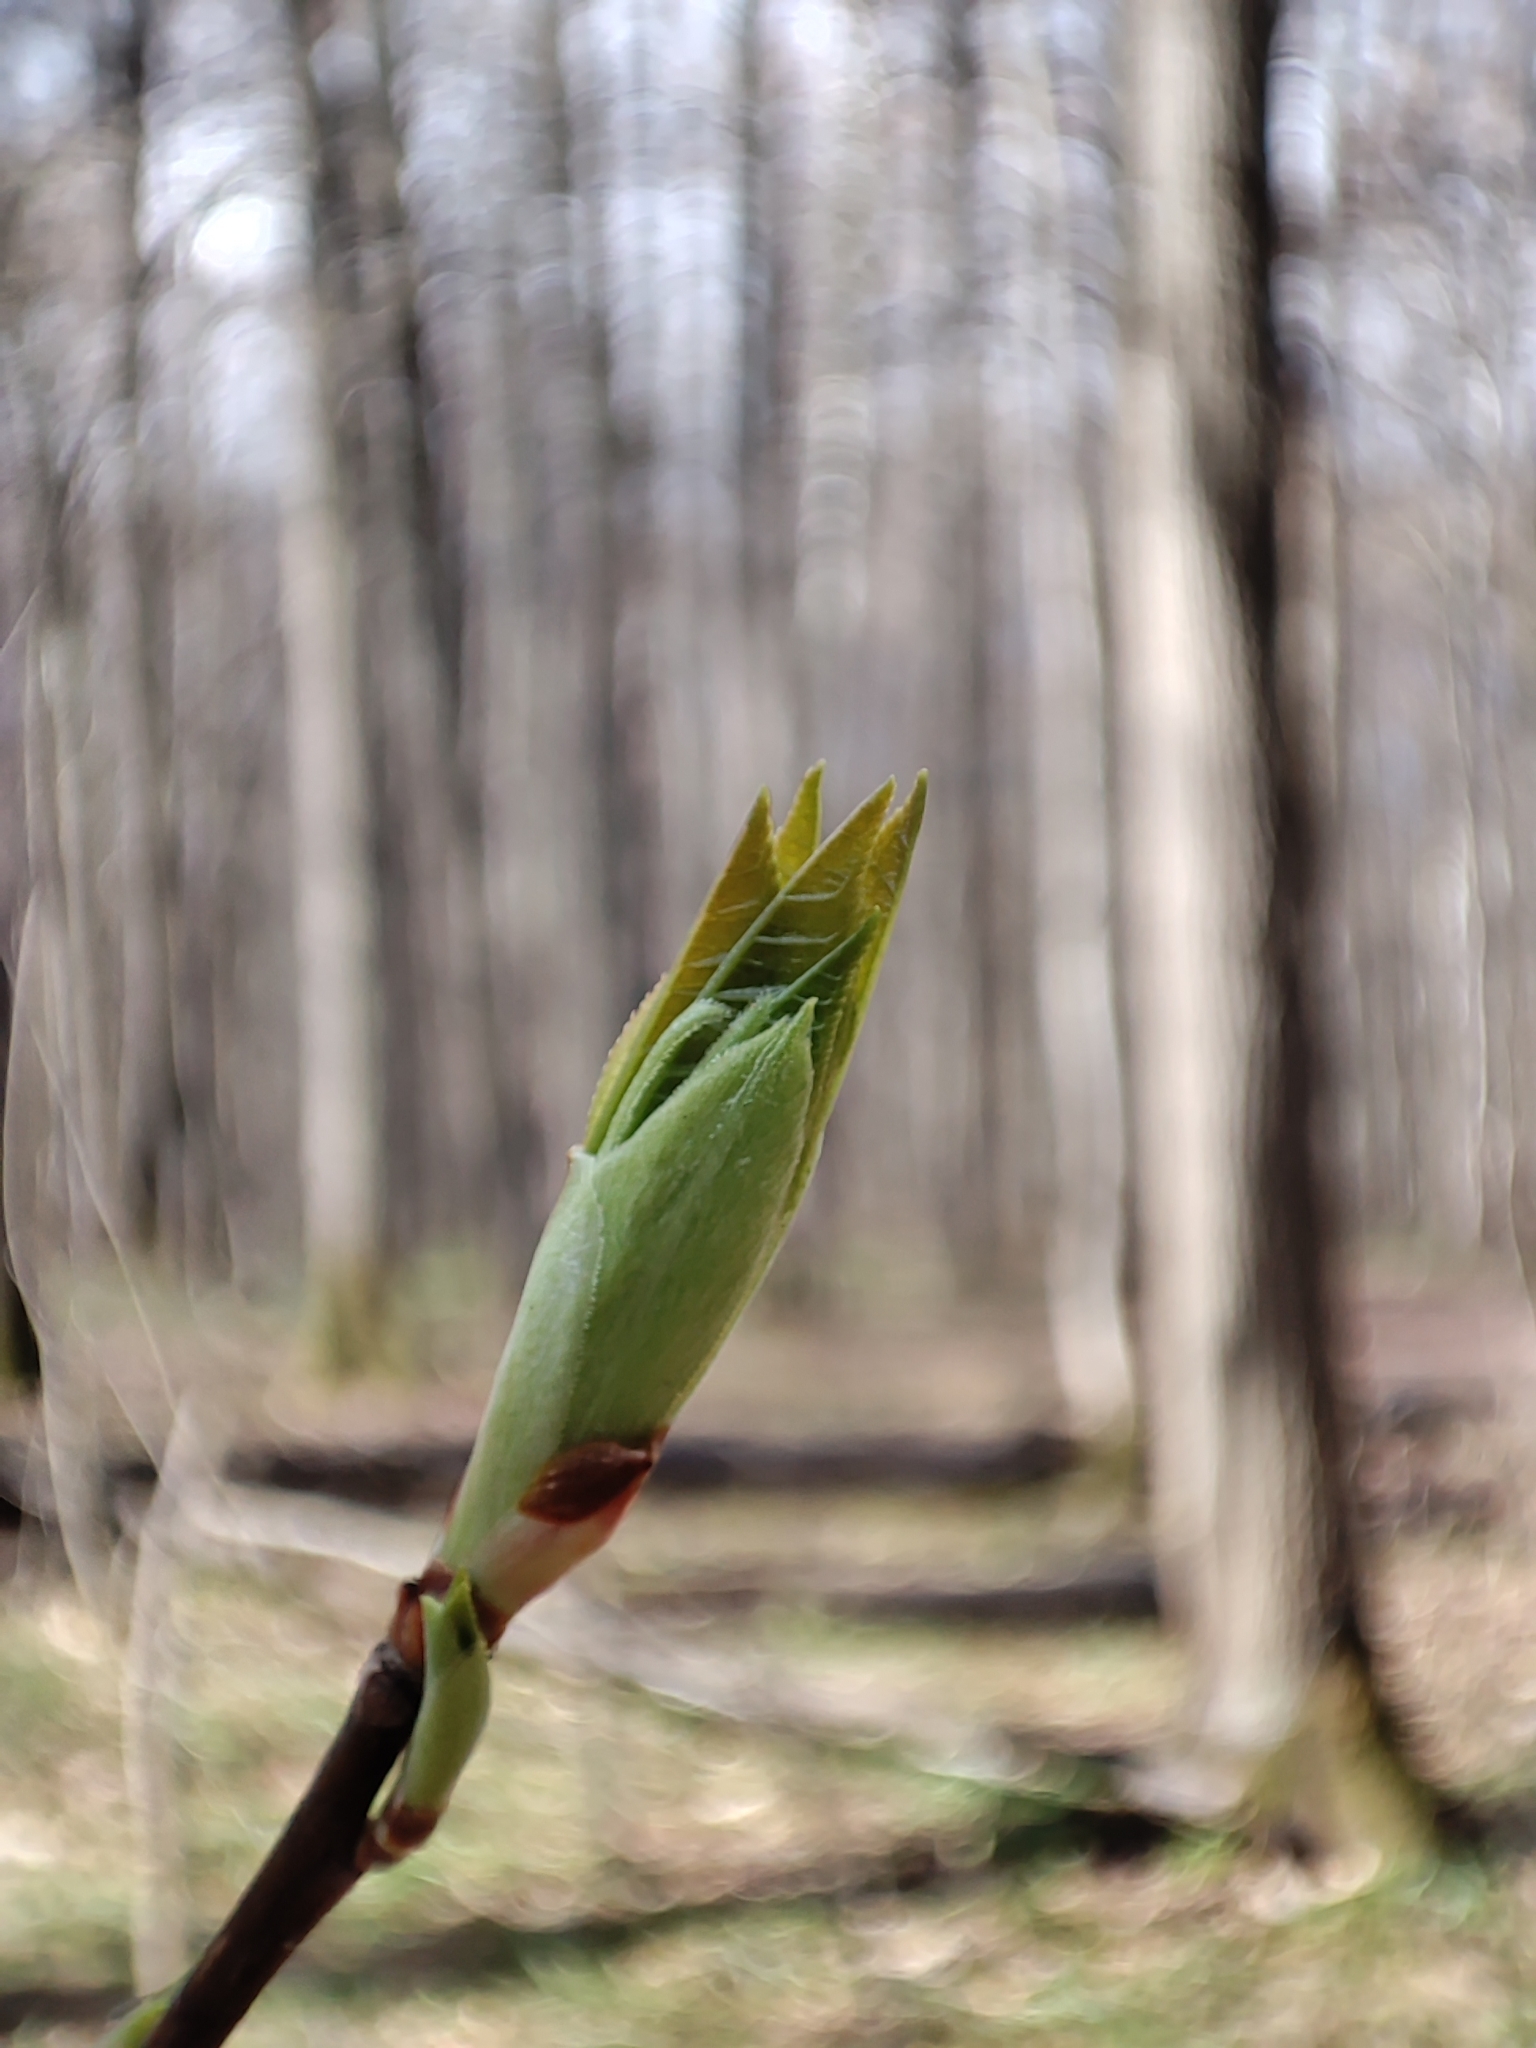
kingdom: Plantae
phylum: Tracheophyta
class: Magnoliopsida
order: Rosales
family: Rosaceae
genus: Prunus
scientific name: Prunus padus
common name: Bird cherry
